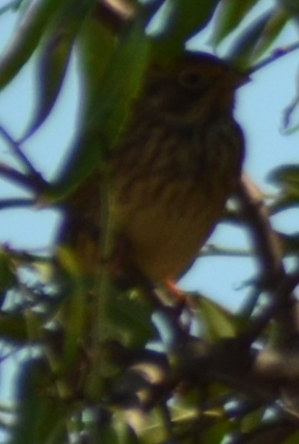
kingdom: Animalia
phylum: Chordata
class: Aves
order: Passeriformes
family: Emberizidae
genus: Emberiza
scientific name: Emberiza calandra
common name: Corn bunting
